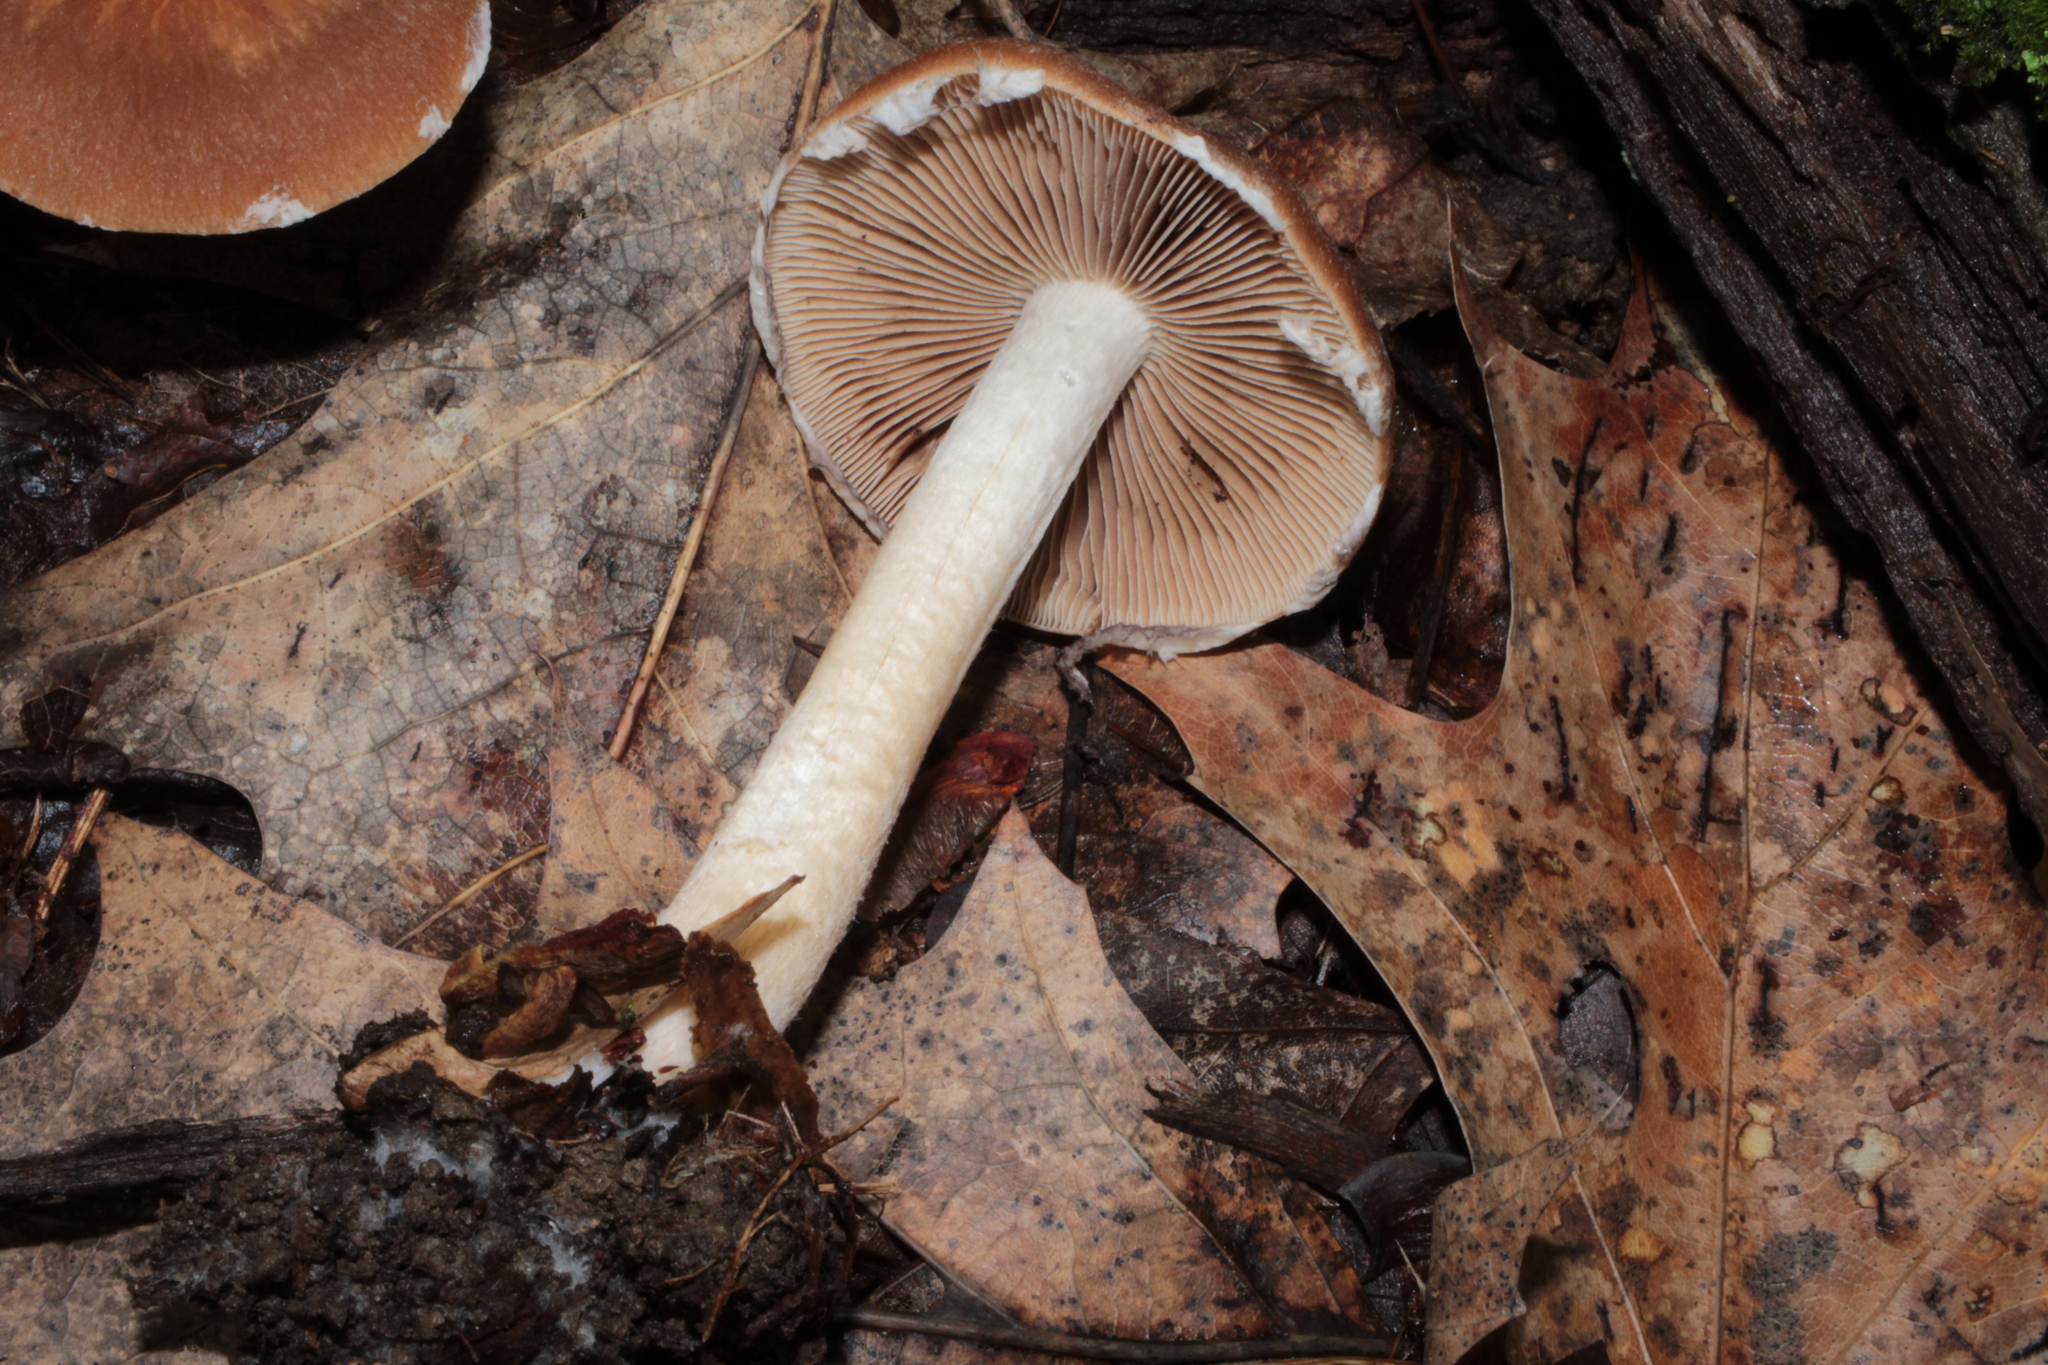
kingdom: Fungi
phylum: Basidiomycota
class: Agaricomycetes
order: Agaricales
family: Psathyrellaceae
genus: Typhrasa
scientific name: Typhrasa gossypina
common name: Wrinkled psathyrella
